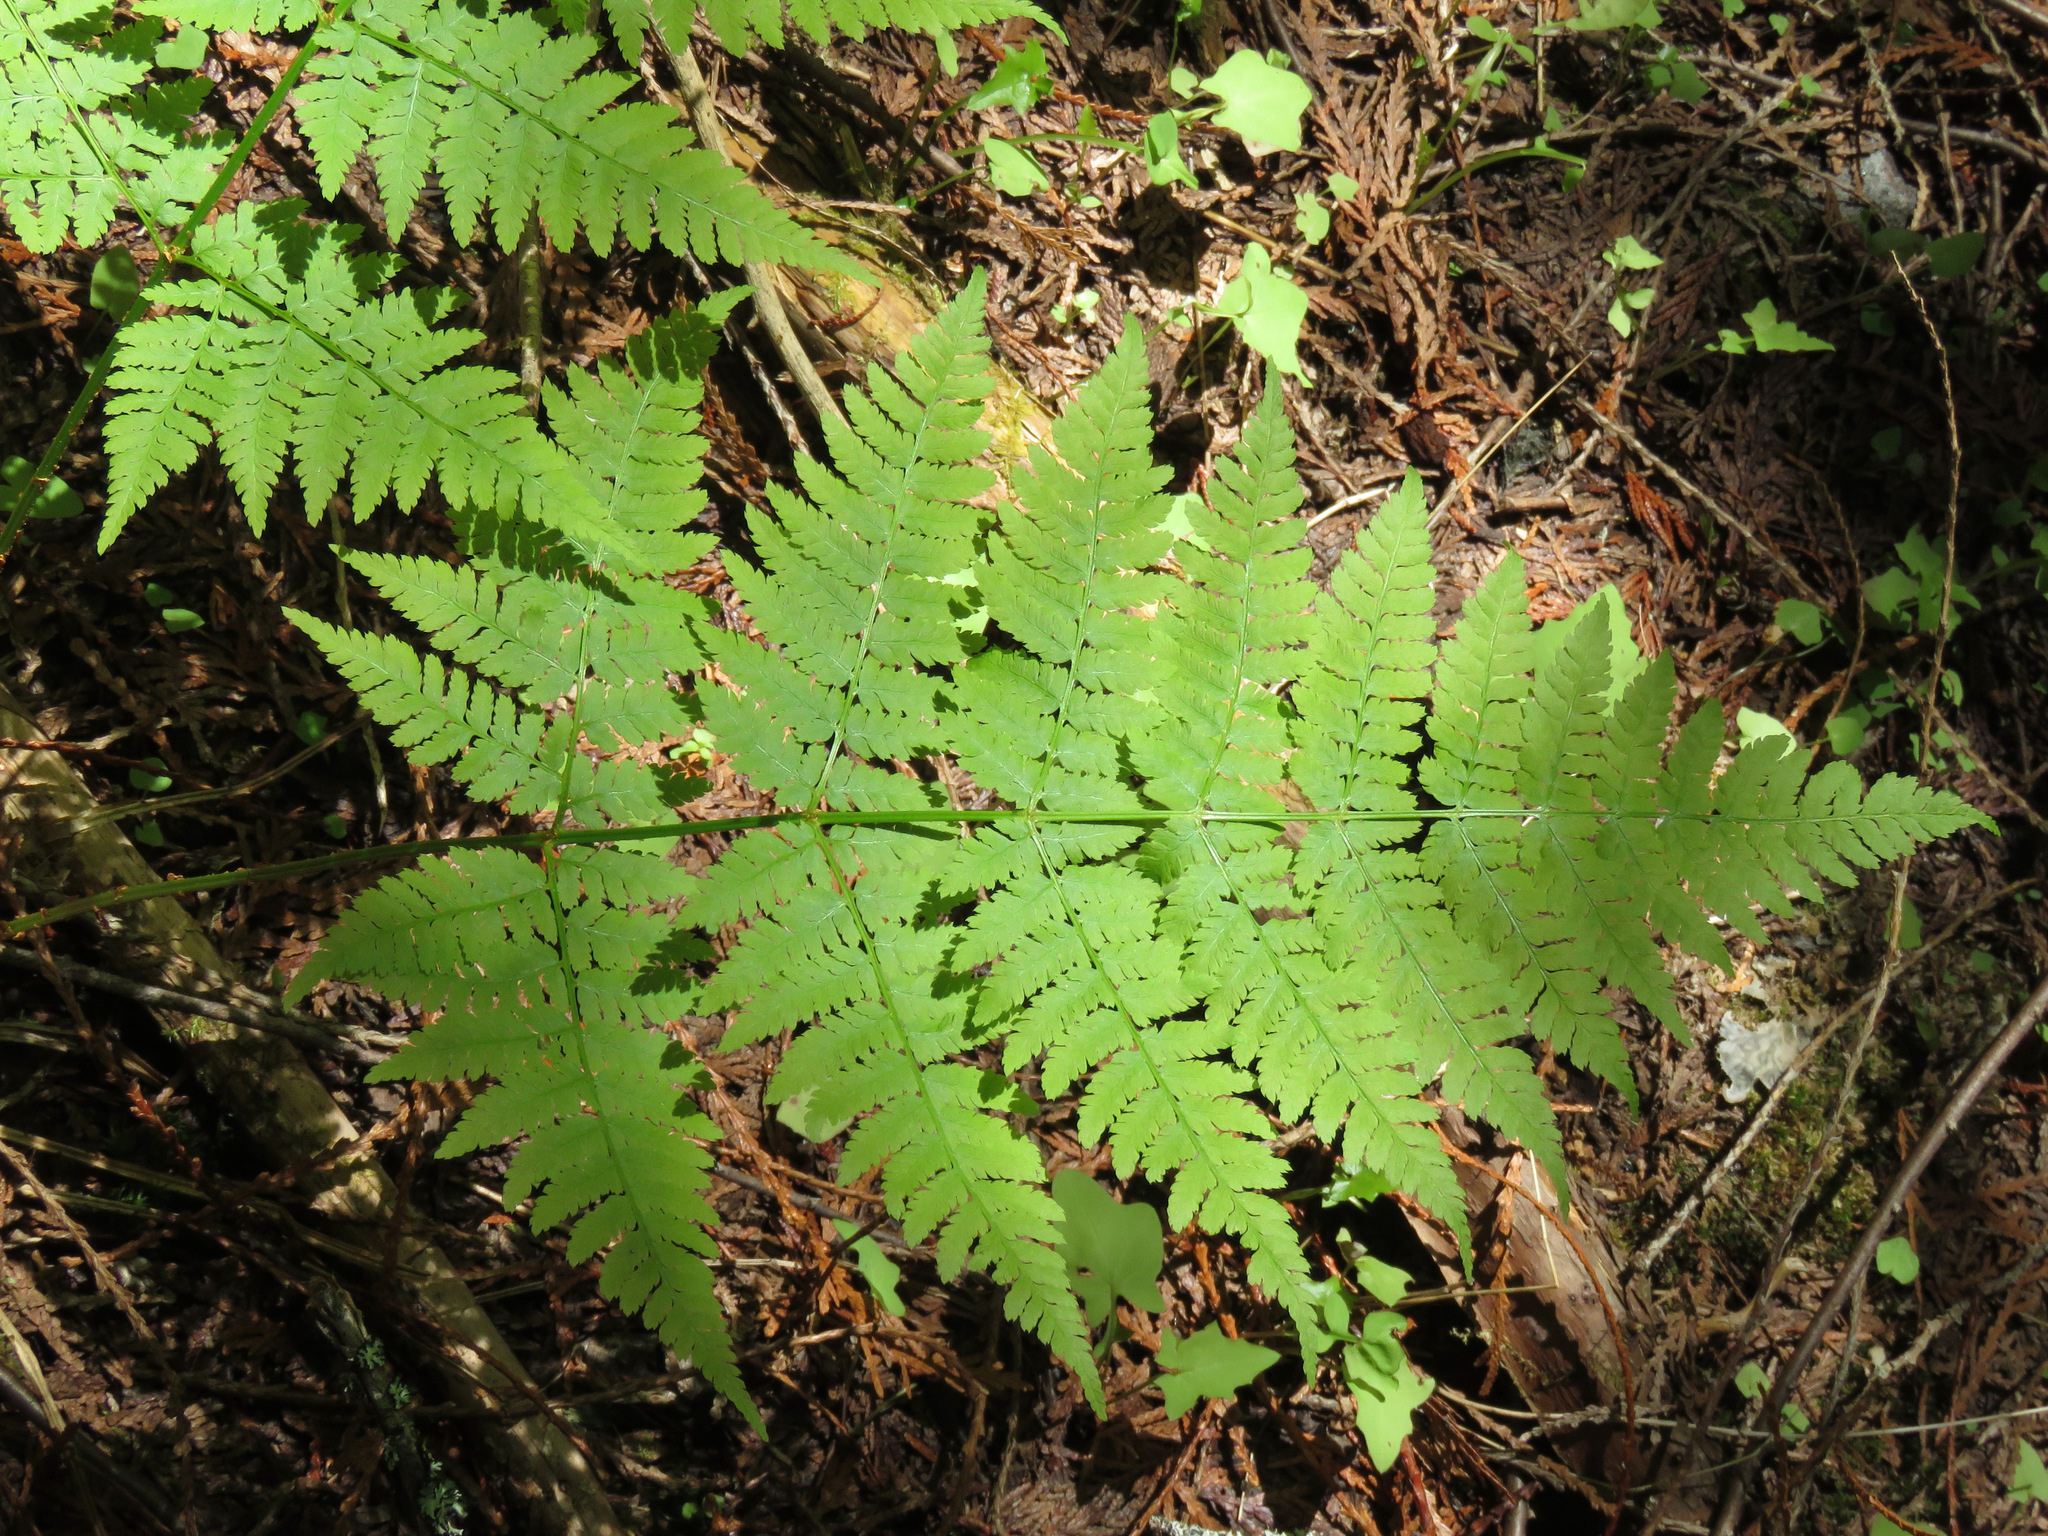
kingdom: Plantae
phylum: Tracheophyta
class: Polypodiopsida
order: Polypodiales
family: Dryopteridaceae
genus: Dryopteris
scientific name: Dryopteris expansa
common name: Northern buckler fern
